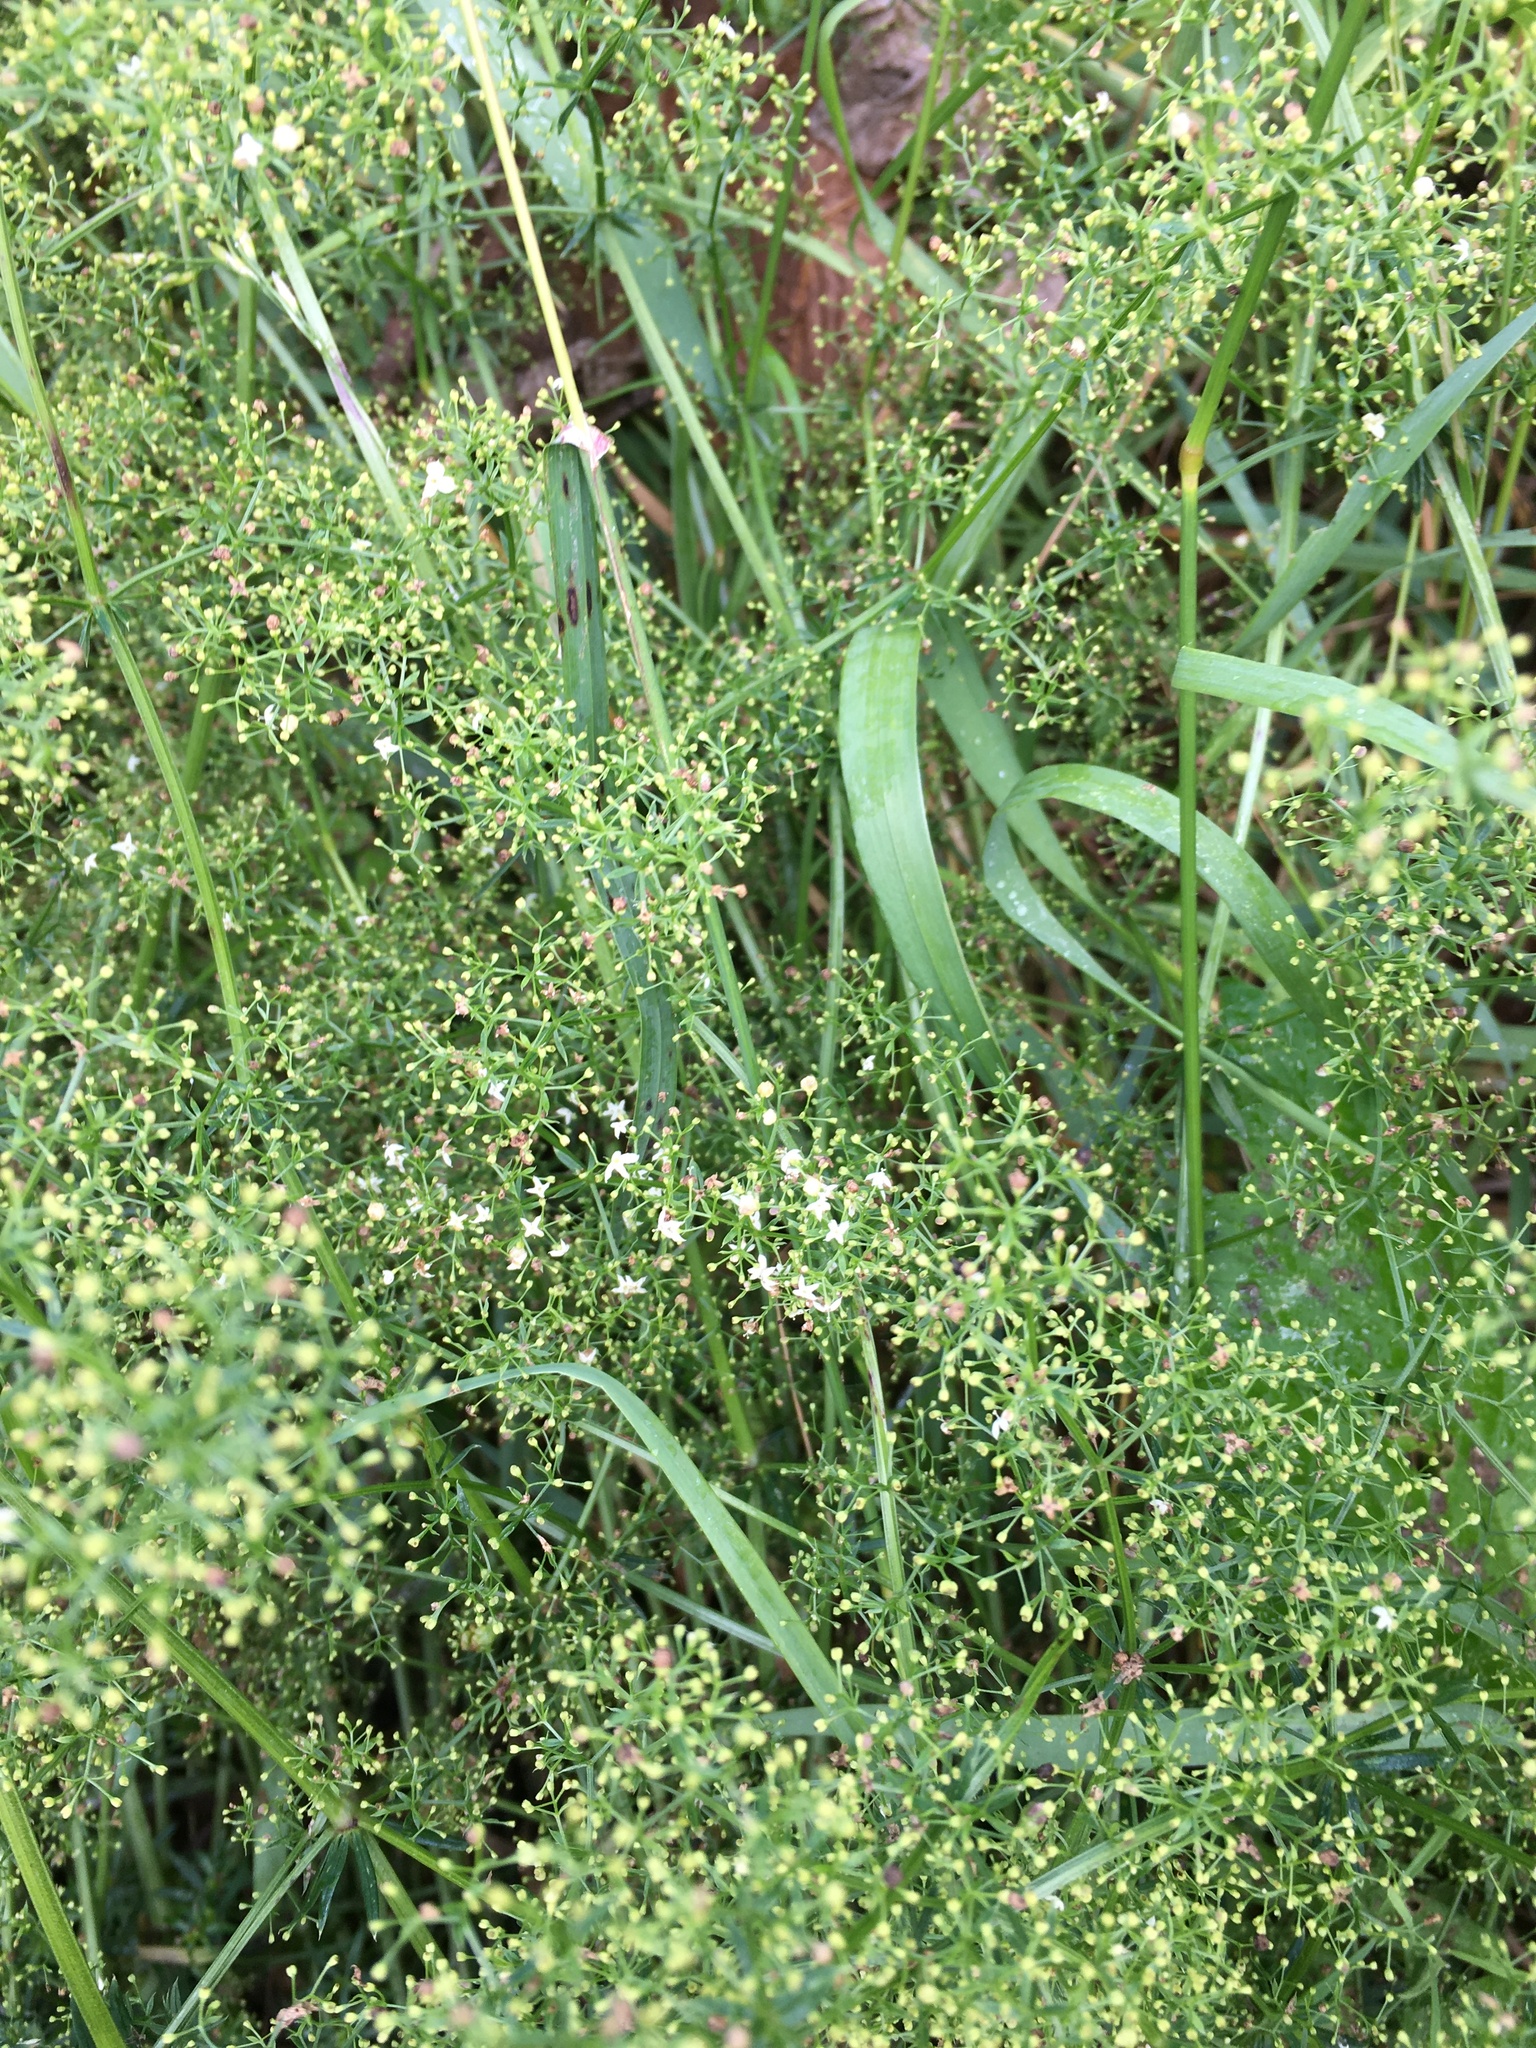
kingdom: Plantae
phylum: Tracheophyta
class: Magnoliopsida
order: Gentianales
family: Rubiaceae
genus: Galium
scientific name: Galium mollugo
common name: Hedge bedstraw
